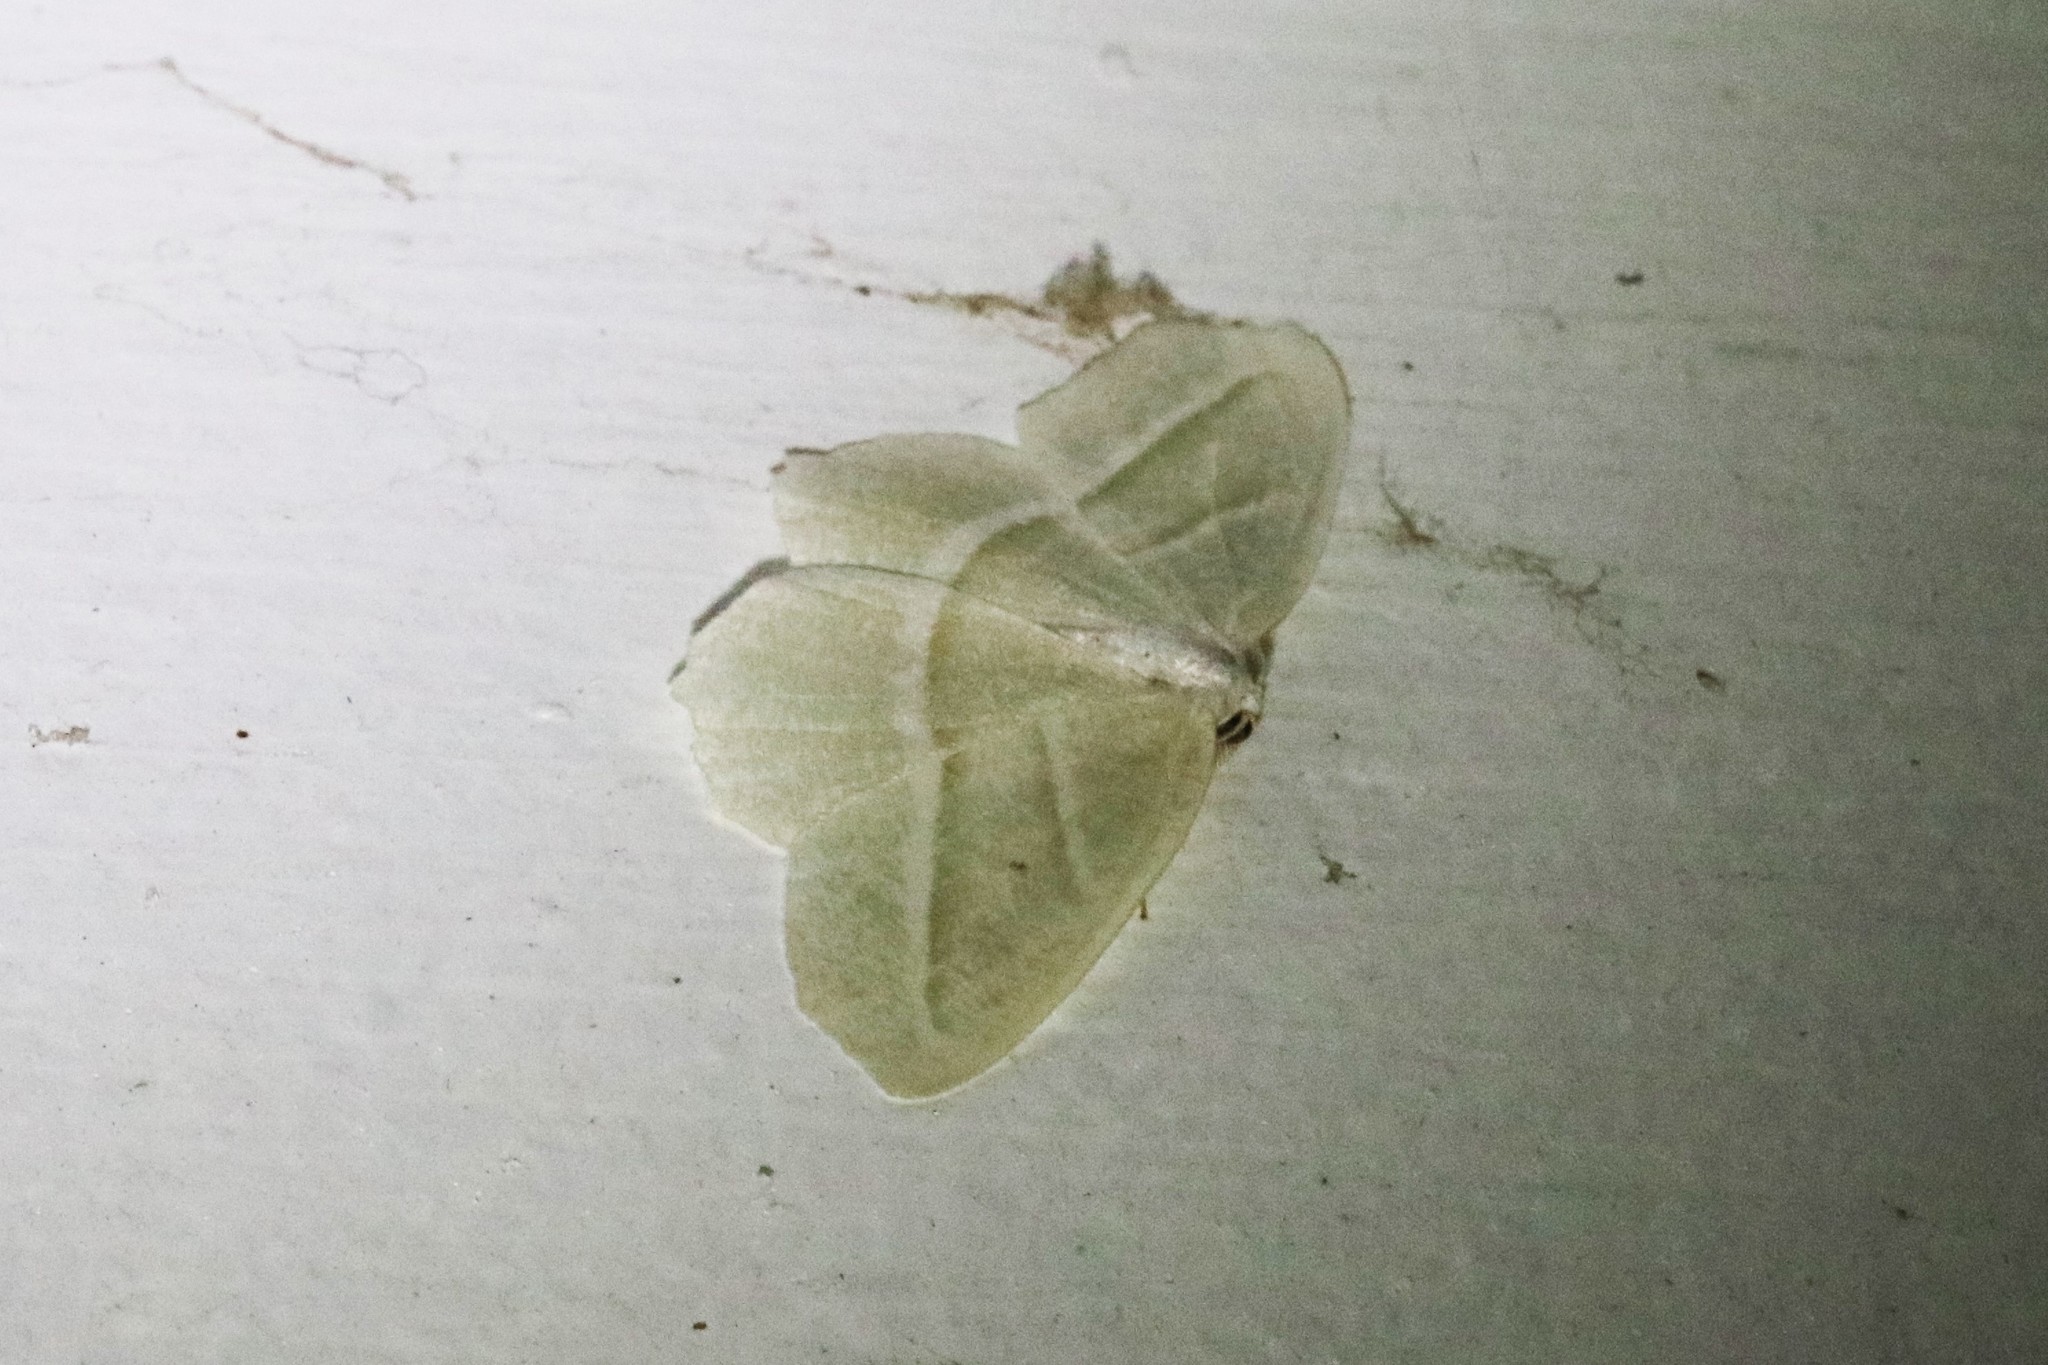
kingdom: Animalia
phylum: Arthropoda
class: Insecta
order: Lepidoptera
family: Geometridae
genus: Campaea
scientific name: Campaea perlata
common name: Fringed looper
